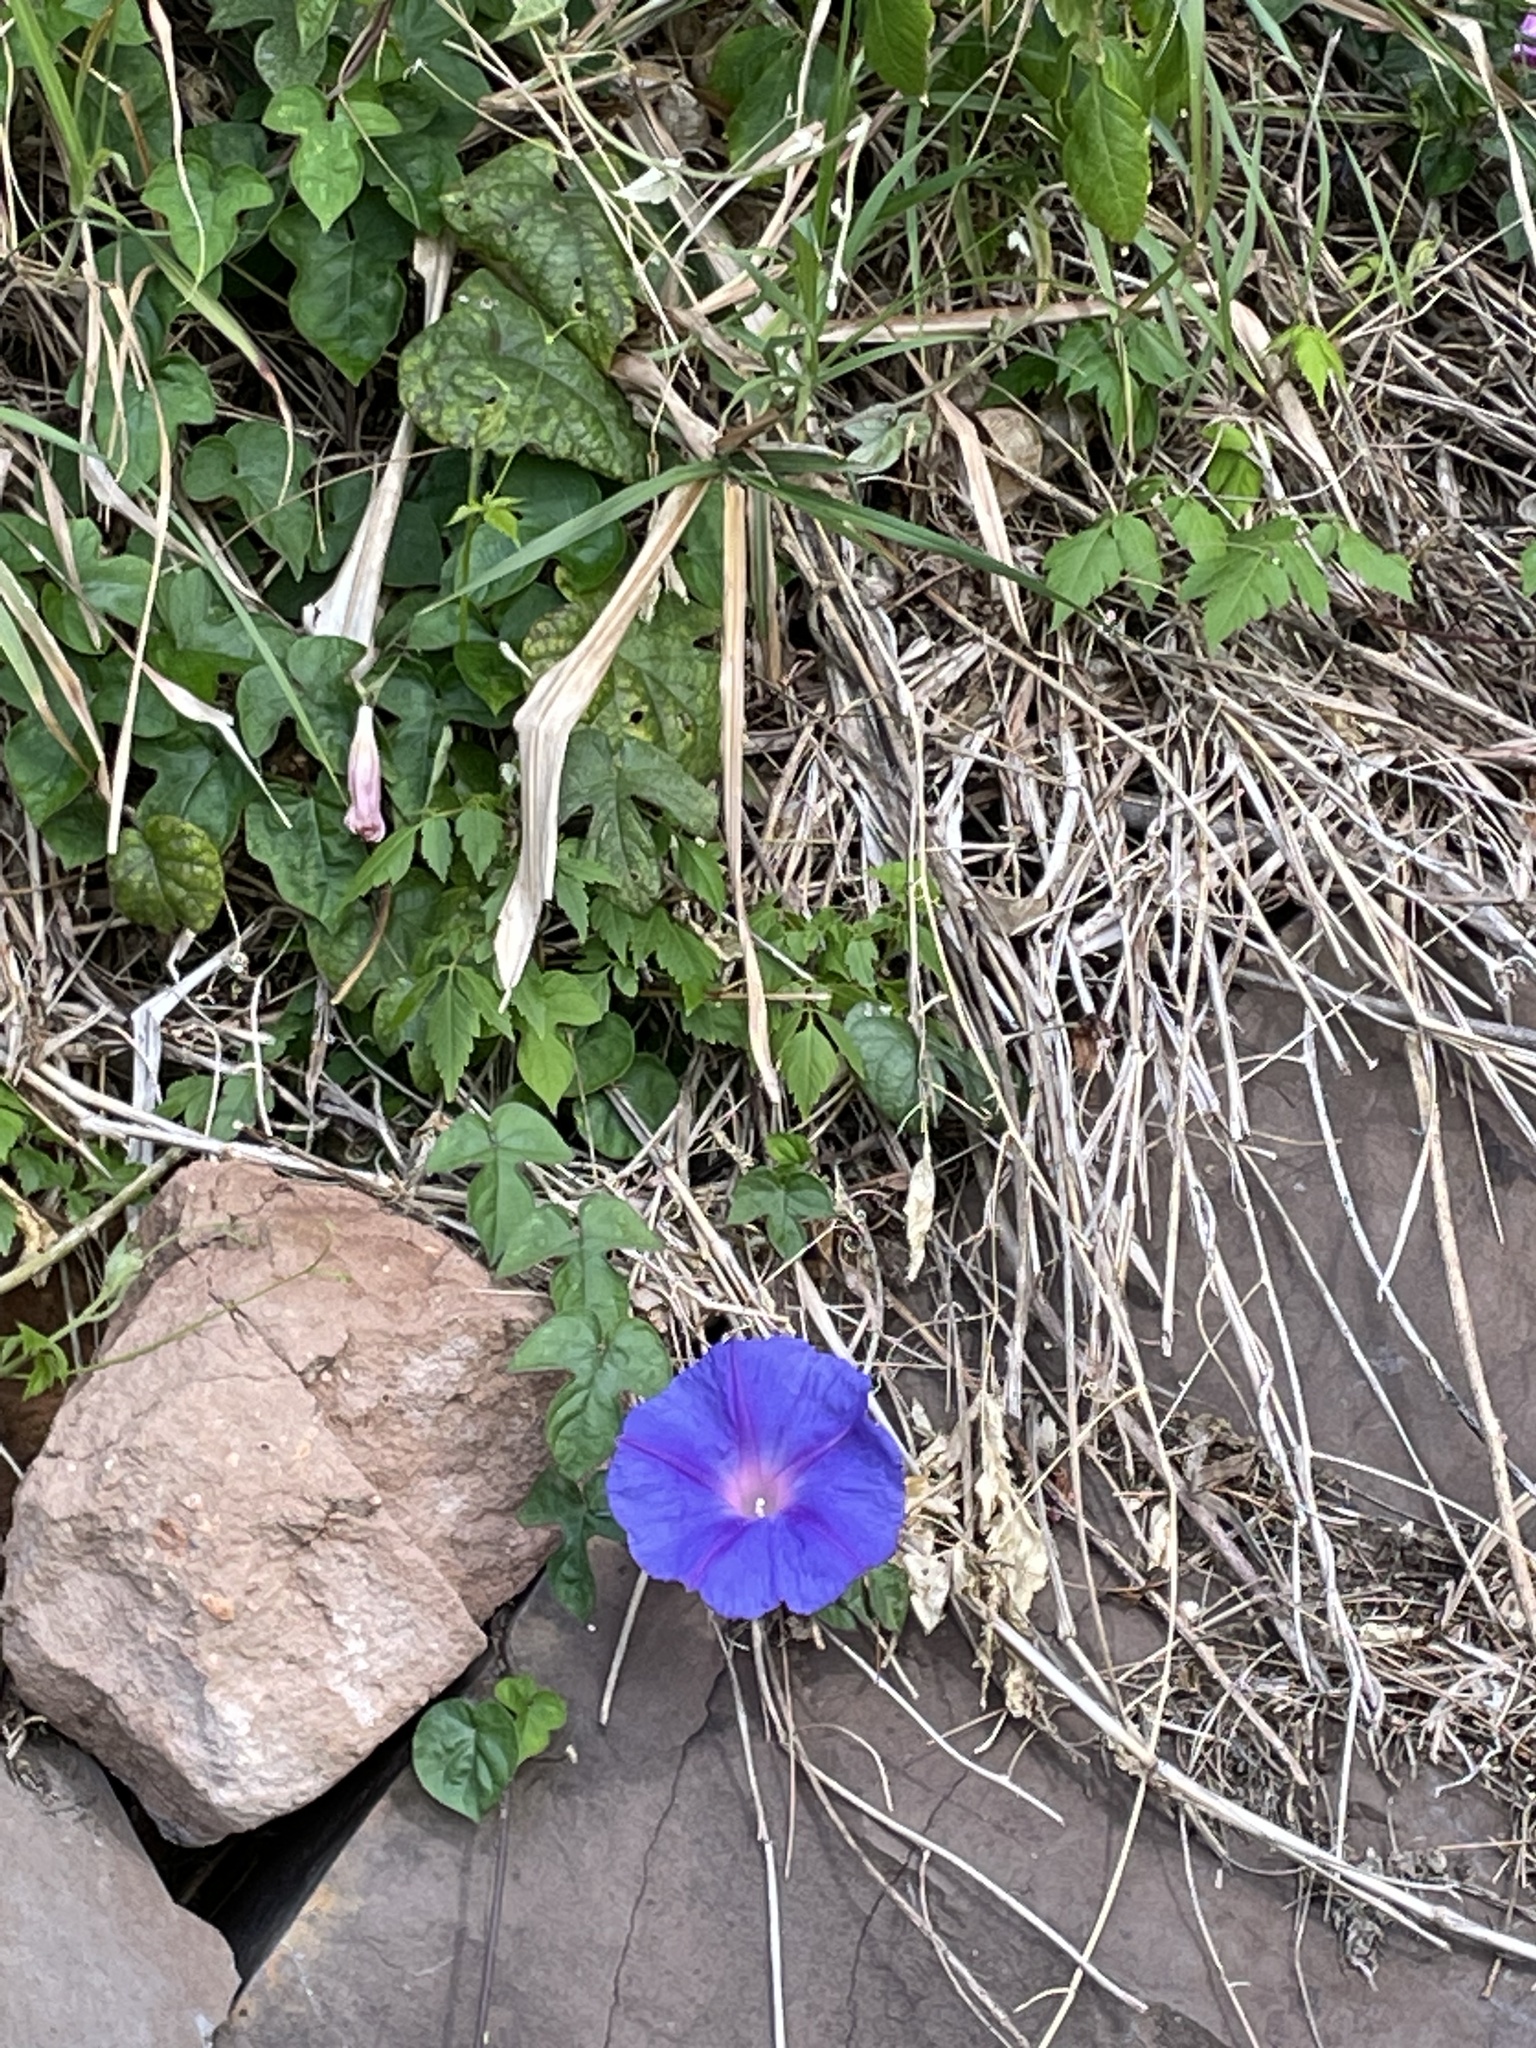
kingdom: Plantae
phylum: Tracheophyta
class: Magnoliopsida
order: Solanales
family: Convolvulaceae
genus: Ipomoea
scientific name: Ipomoea indica
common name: Blue dawnflower
